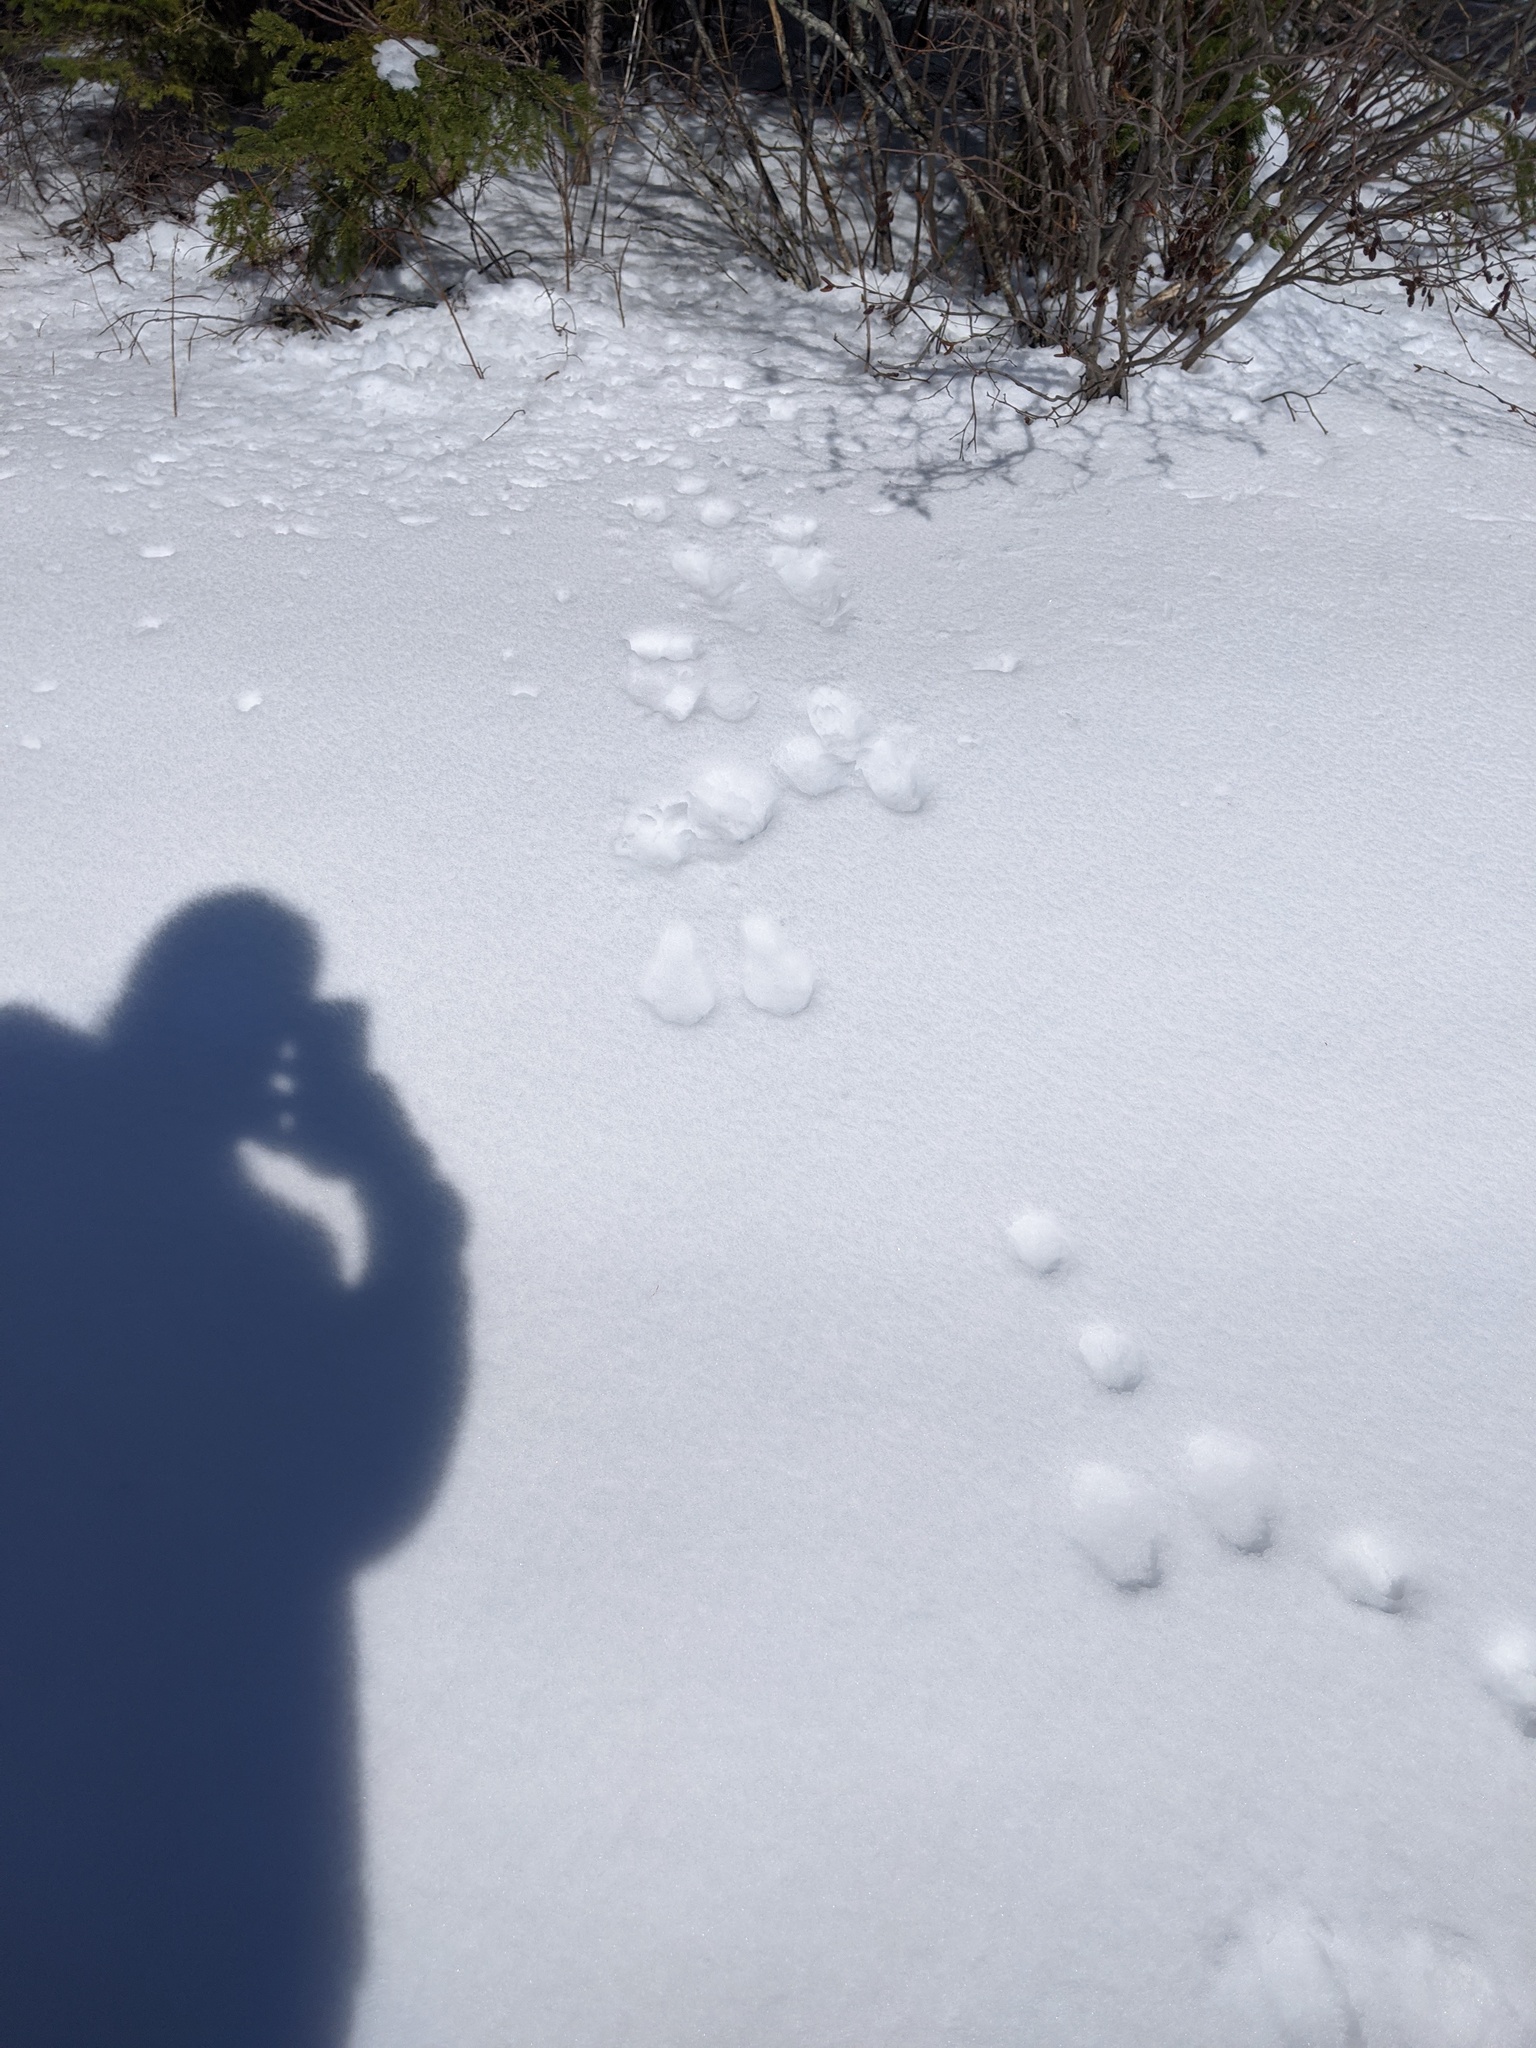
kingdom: Animalia
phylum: Chordata
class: Mammalia
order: Lagomorpha
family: Leporidae
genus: Lepus
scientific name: Lepus americanus
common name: Snowshoe hare
